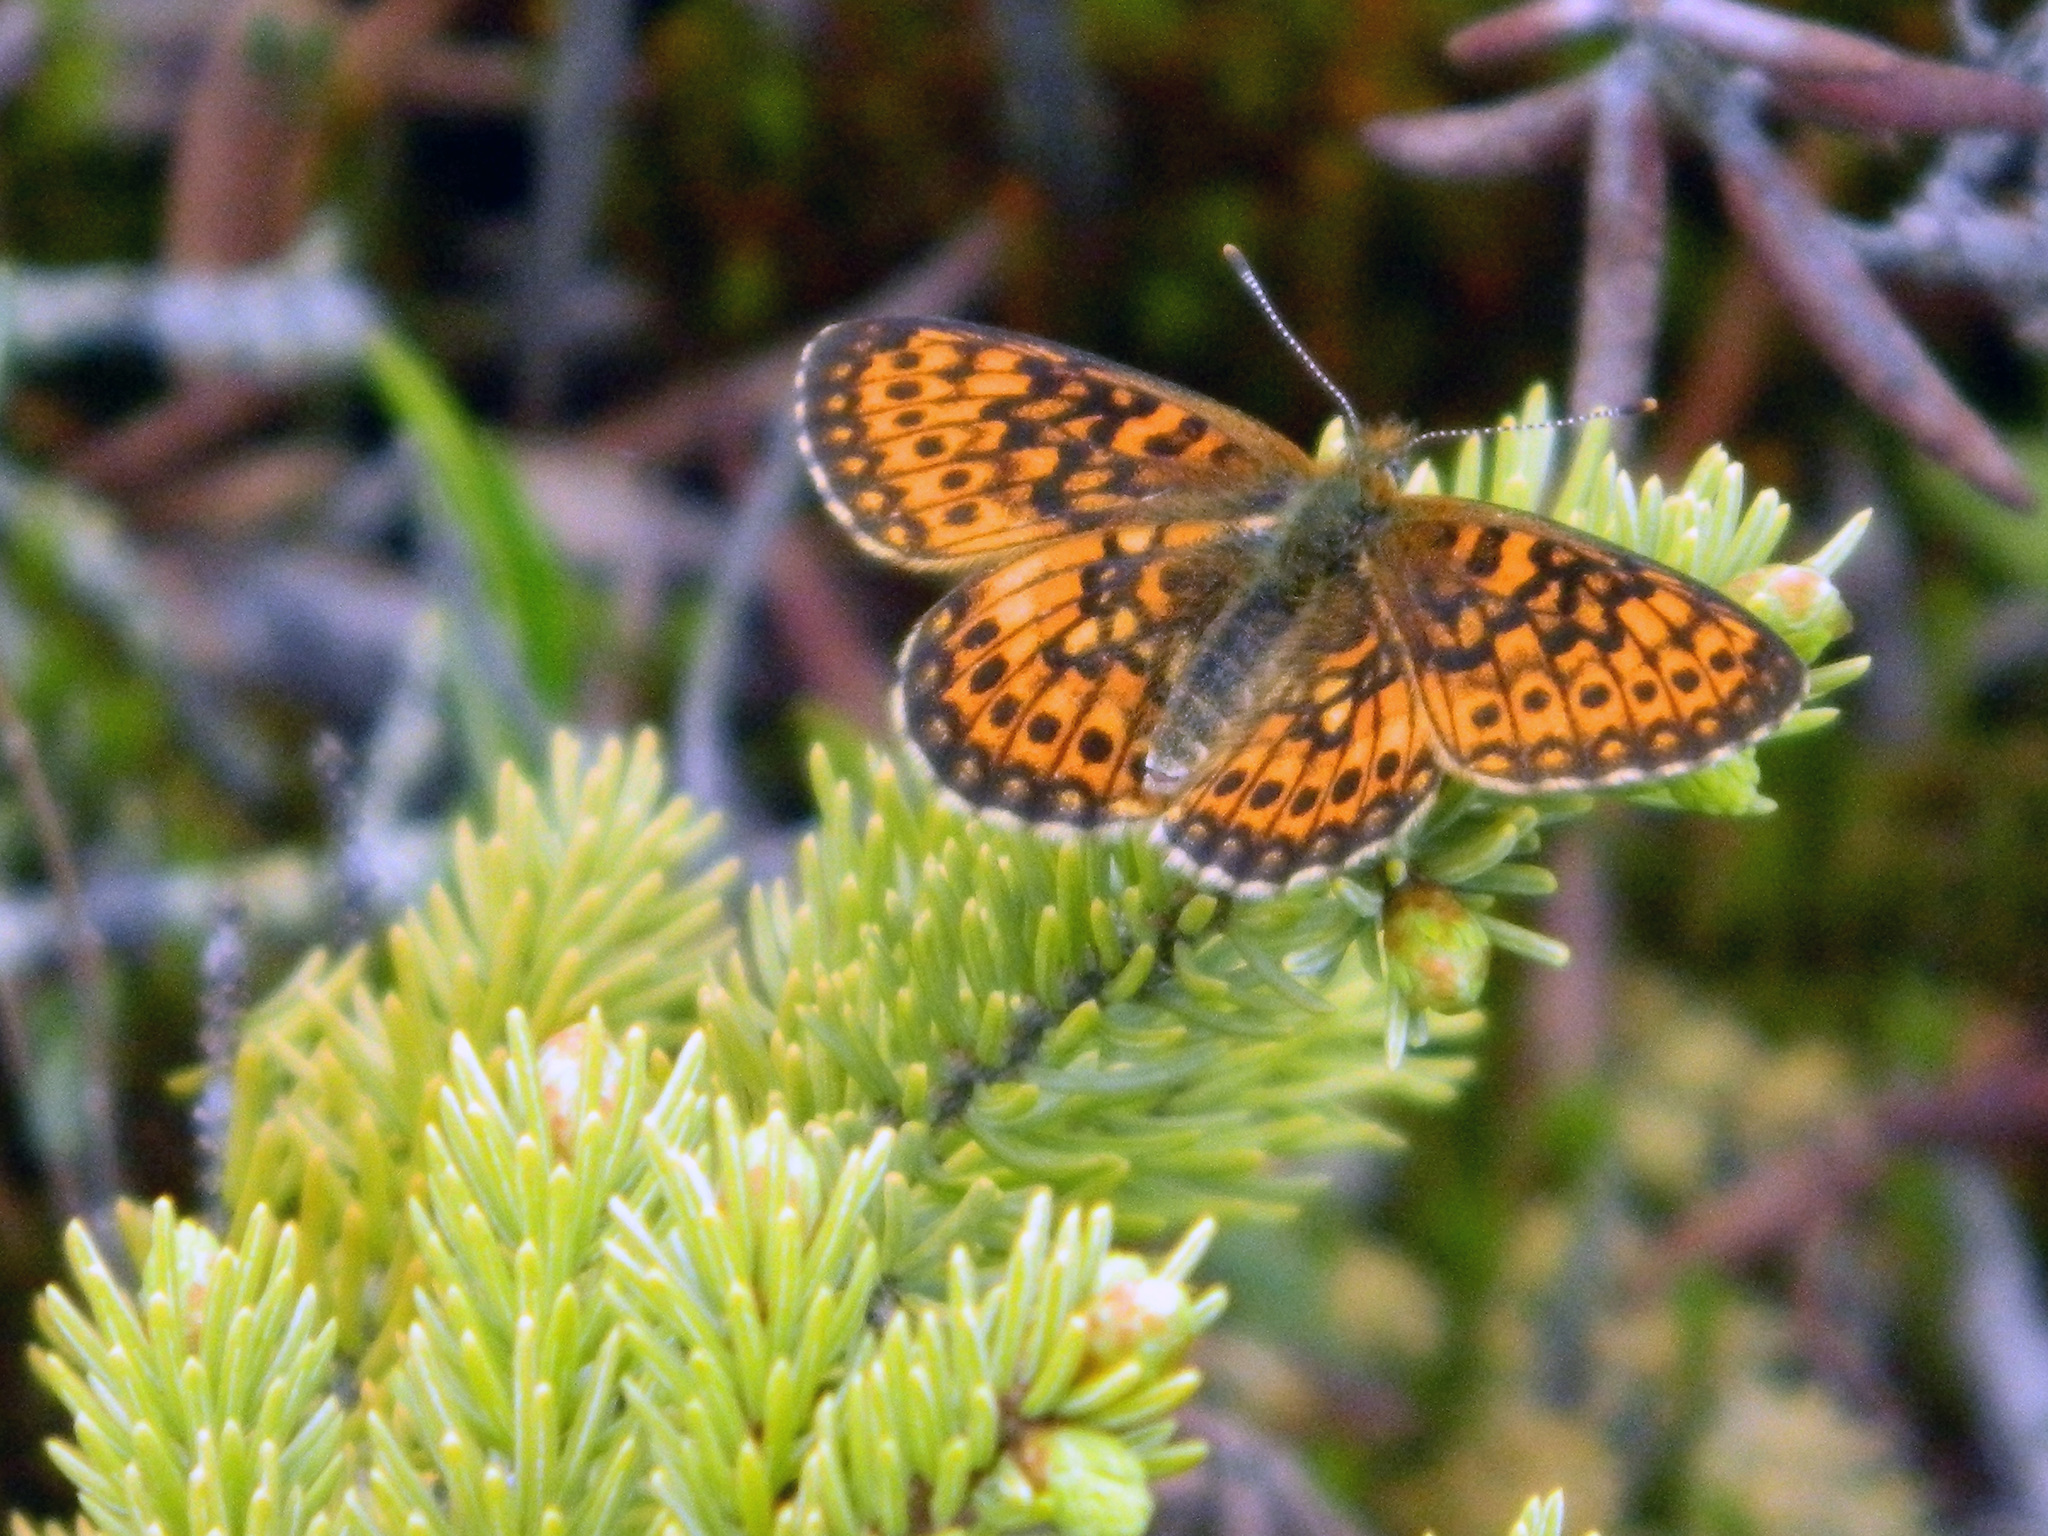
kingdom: Animalia
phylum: Arthropoda
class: Insecta
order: Lepidoptera
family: Nymphalidae
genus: Boloria
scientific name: Boloria eunomia
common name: Bog fritillary
